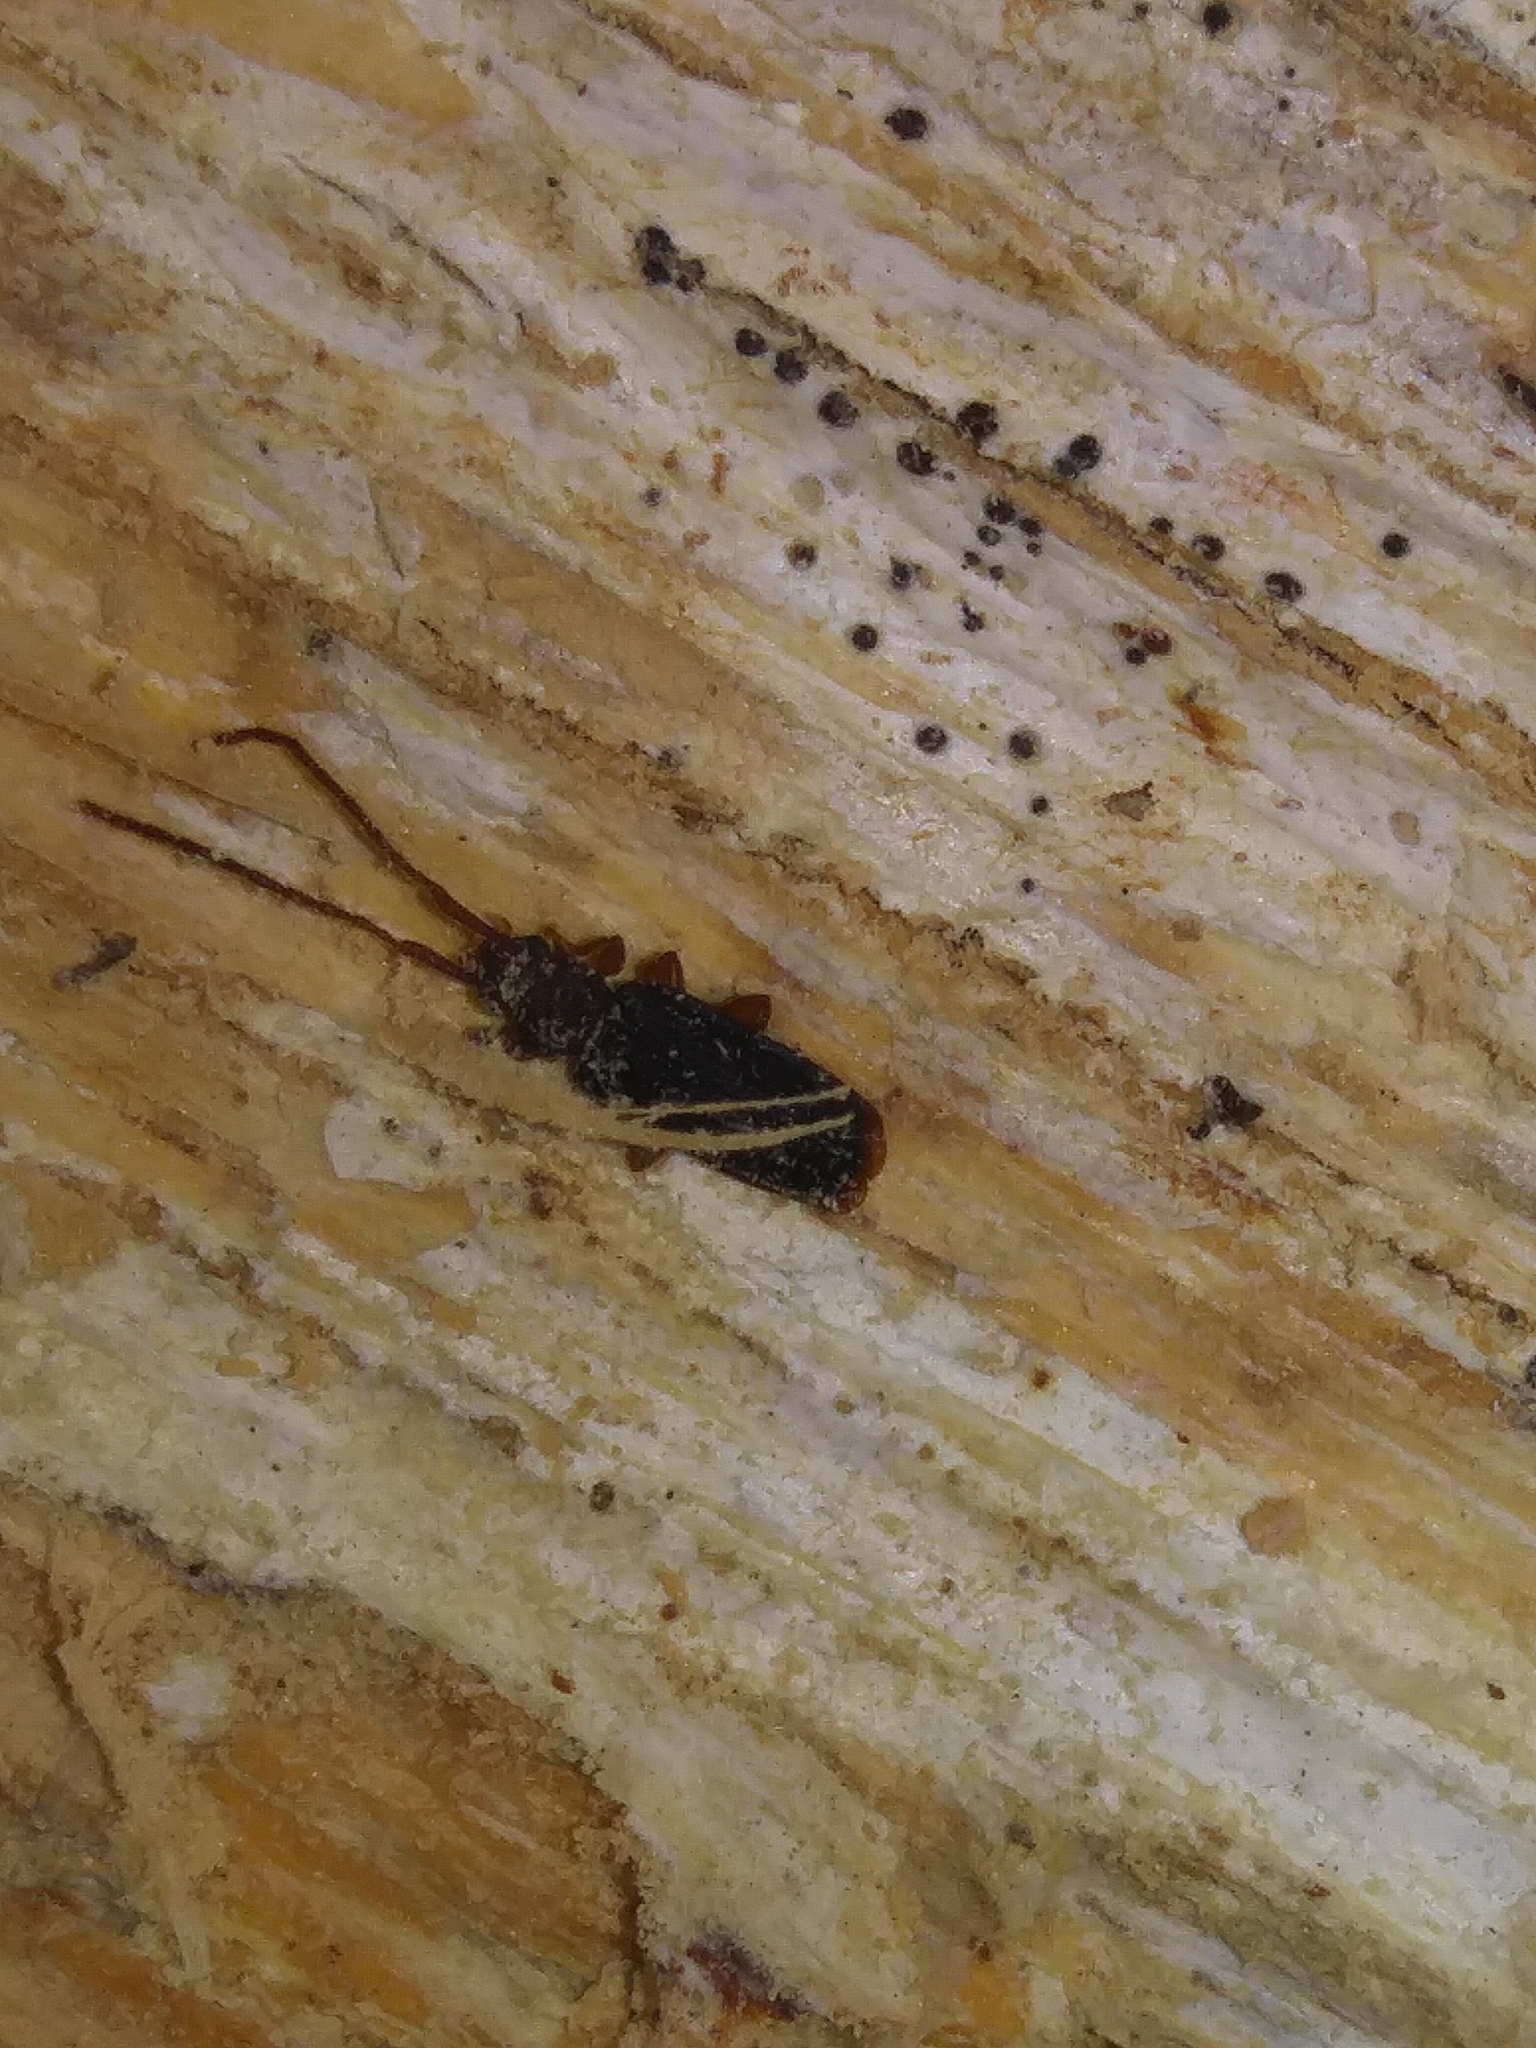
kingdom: Animalia
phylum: Arthropoda
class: Insecta
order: Coleoptera
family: Silvanidae
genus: Uleiota
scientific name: Uleiota dubia
